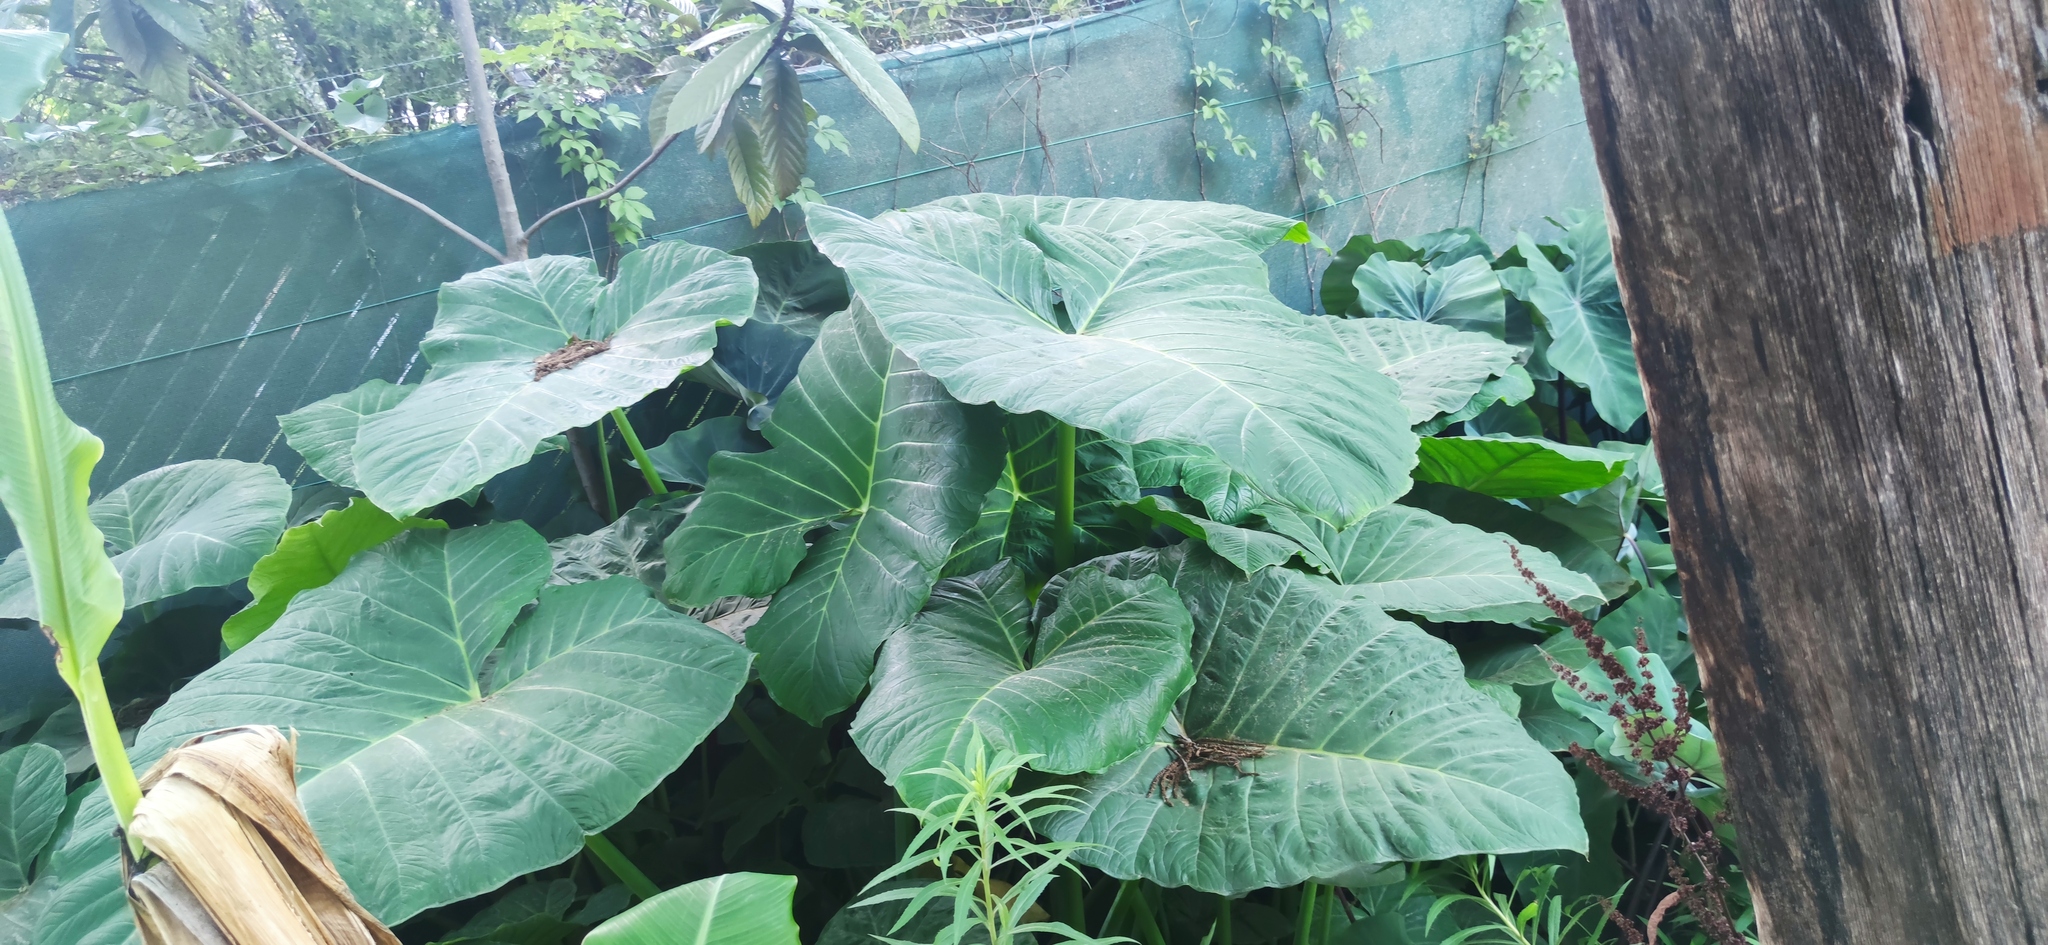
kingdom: Plantae
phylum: Tracheophyta
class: Liliopsida
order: Alismatales
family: Araceae
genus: Xanthosoma
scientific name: Xanthosoma robustum
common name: Capote
